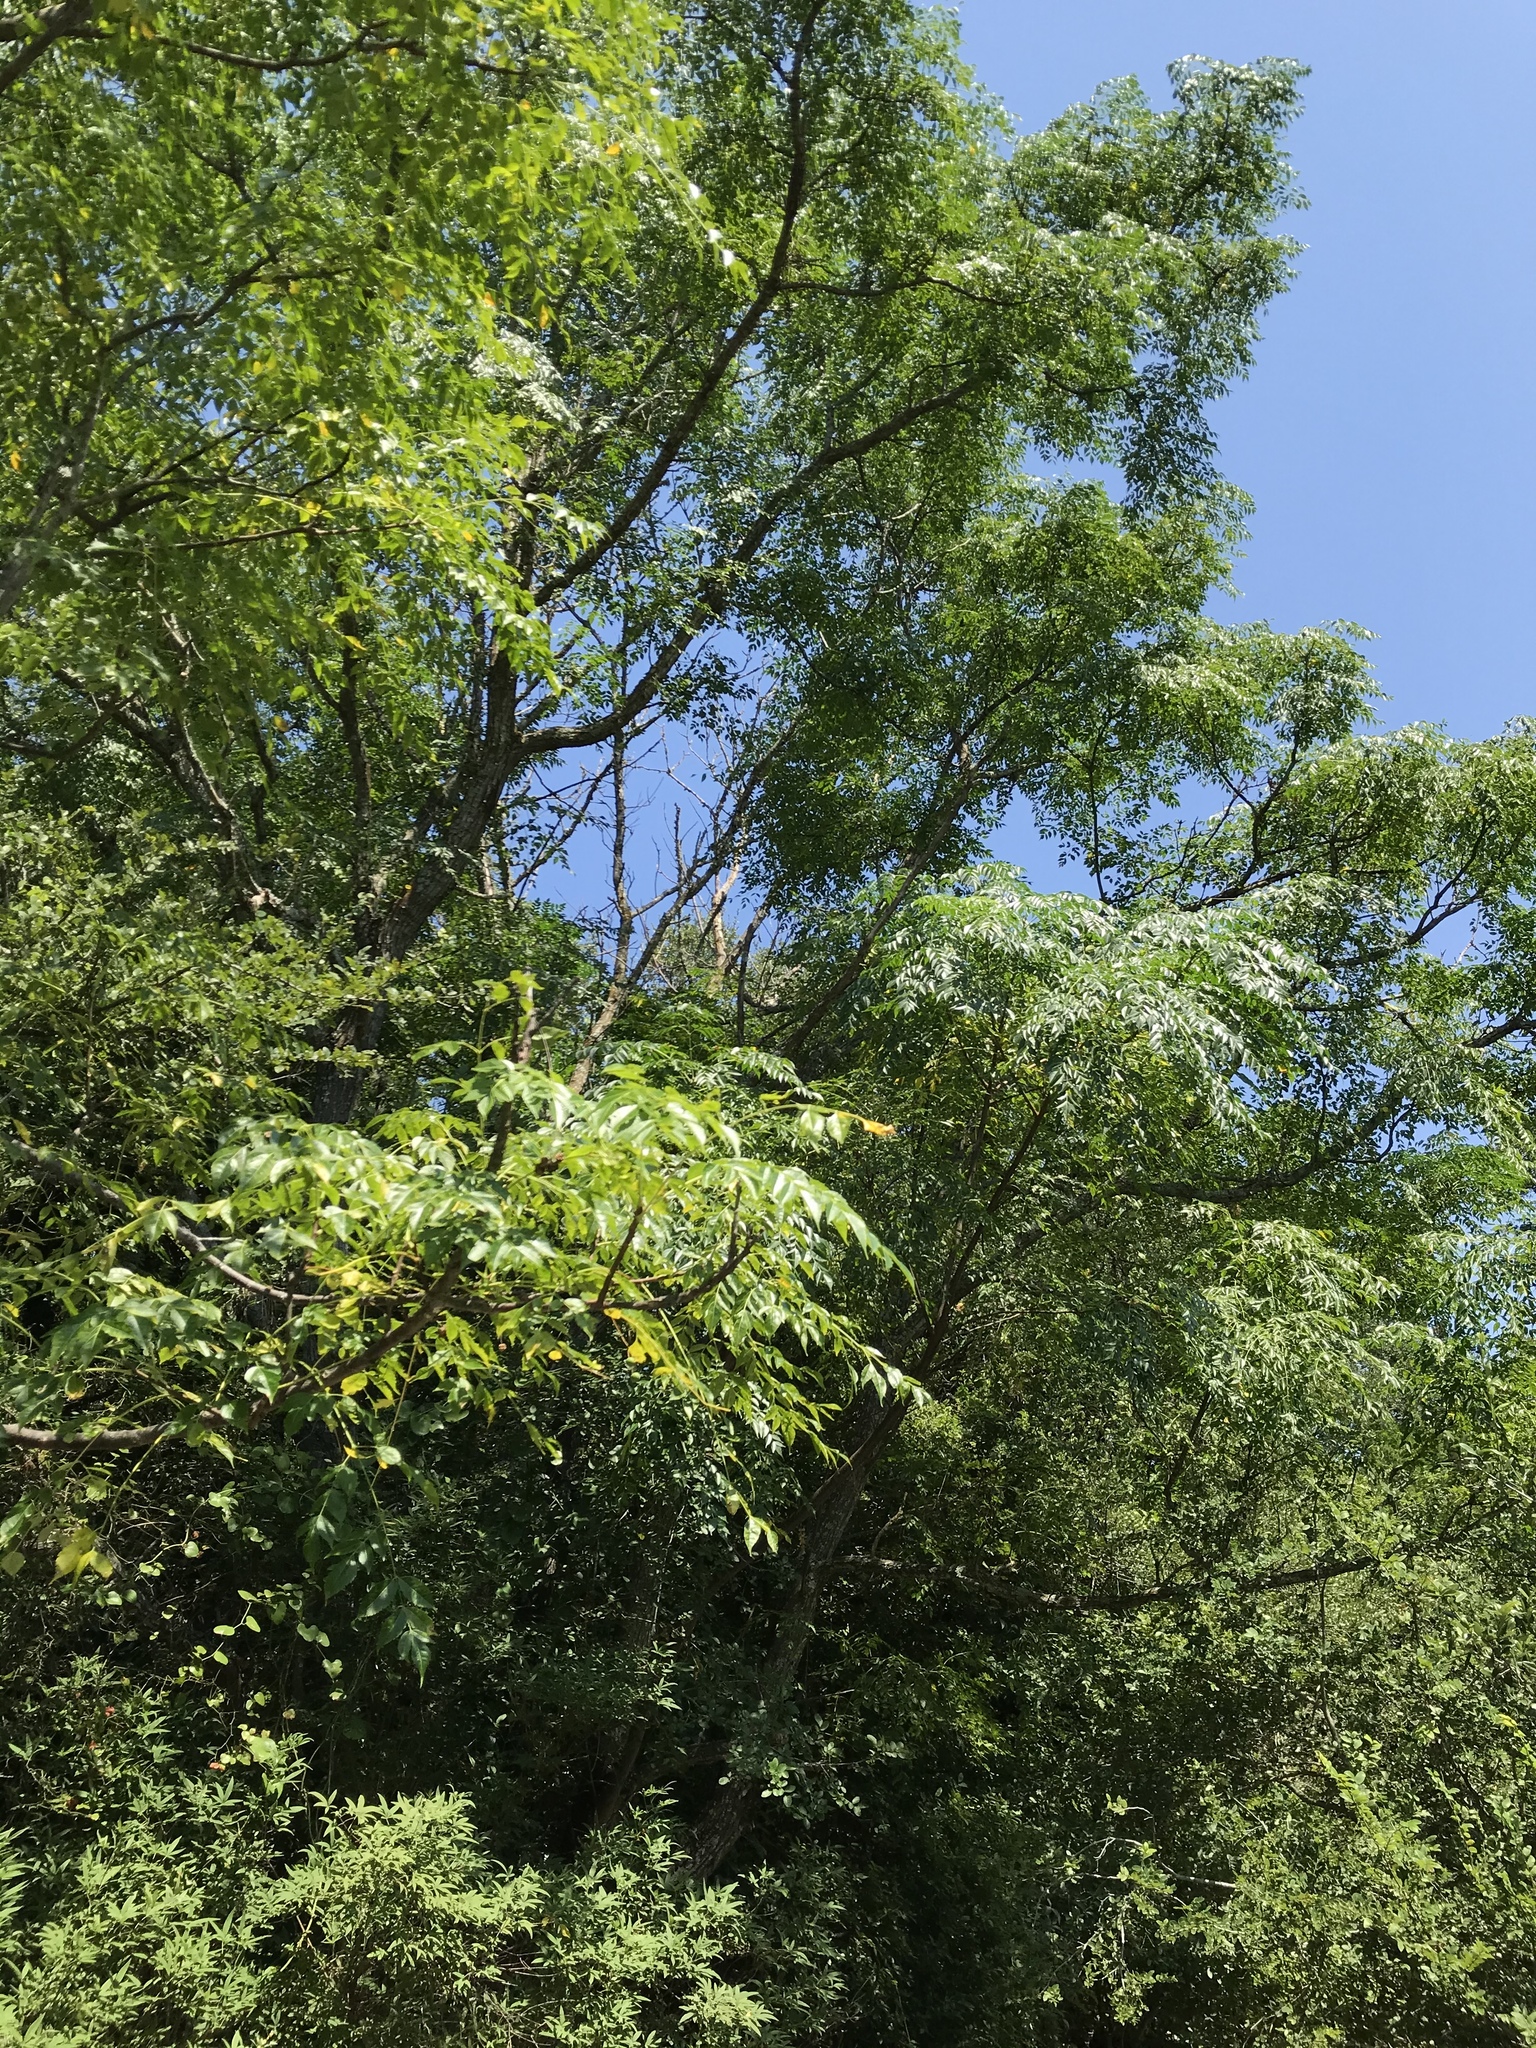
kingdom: Plantae
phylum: Tracheophyta
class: Magnoliopsida
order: Sapindales
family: Meliaceae
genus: Melia
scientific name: Melia azedarach
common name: Chinaberrytree
